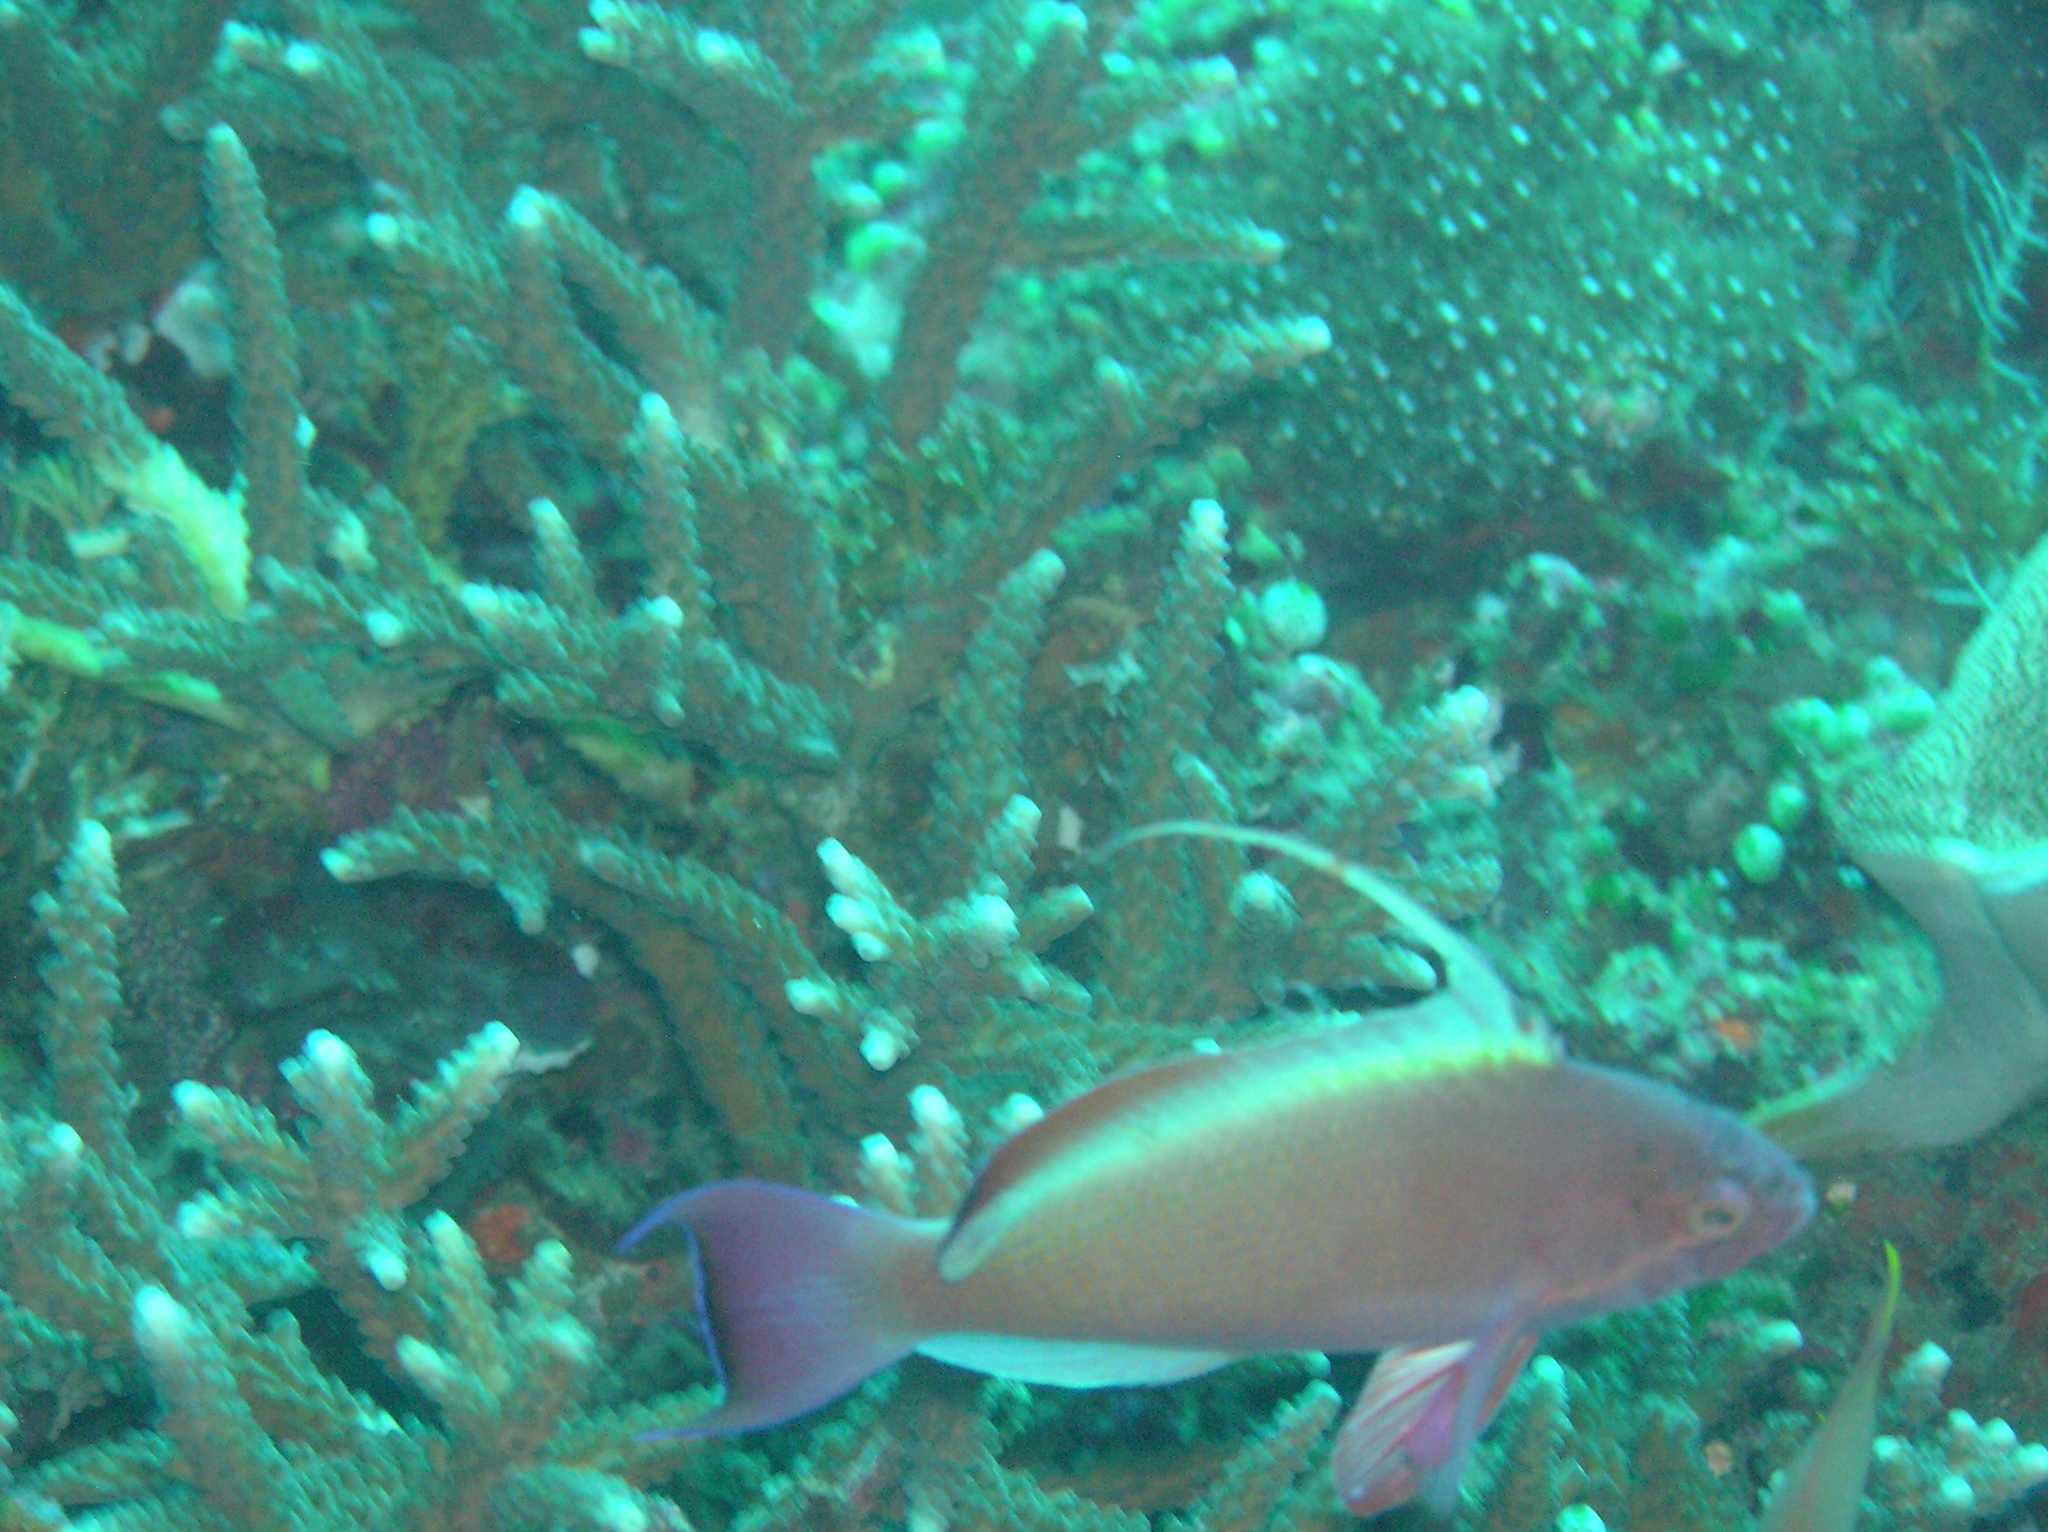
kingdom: Animalia
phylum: Chordata
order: Perciformes
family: Serranidae
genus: Pseudanthias
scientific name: Pseudanthias squamipinnis
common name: Scalefin anthias
